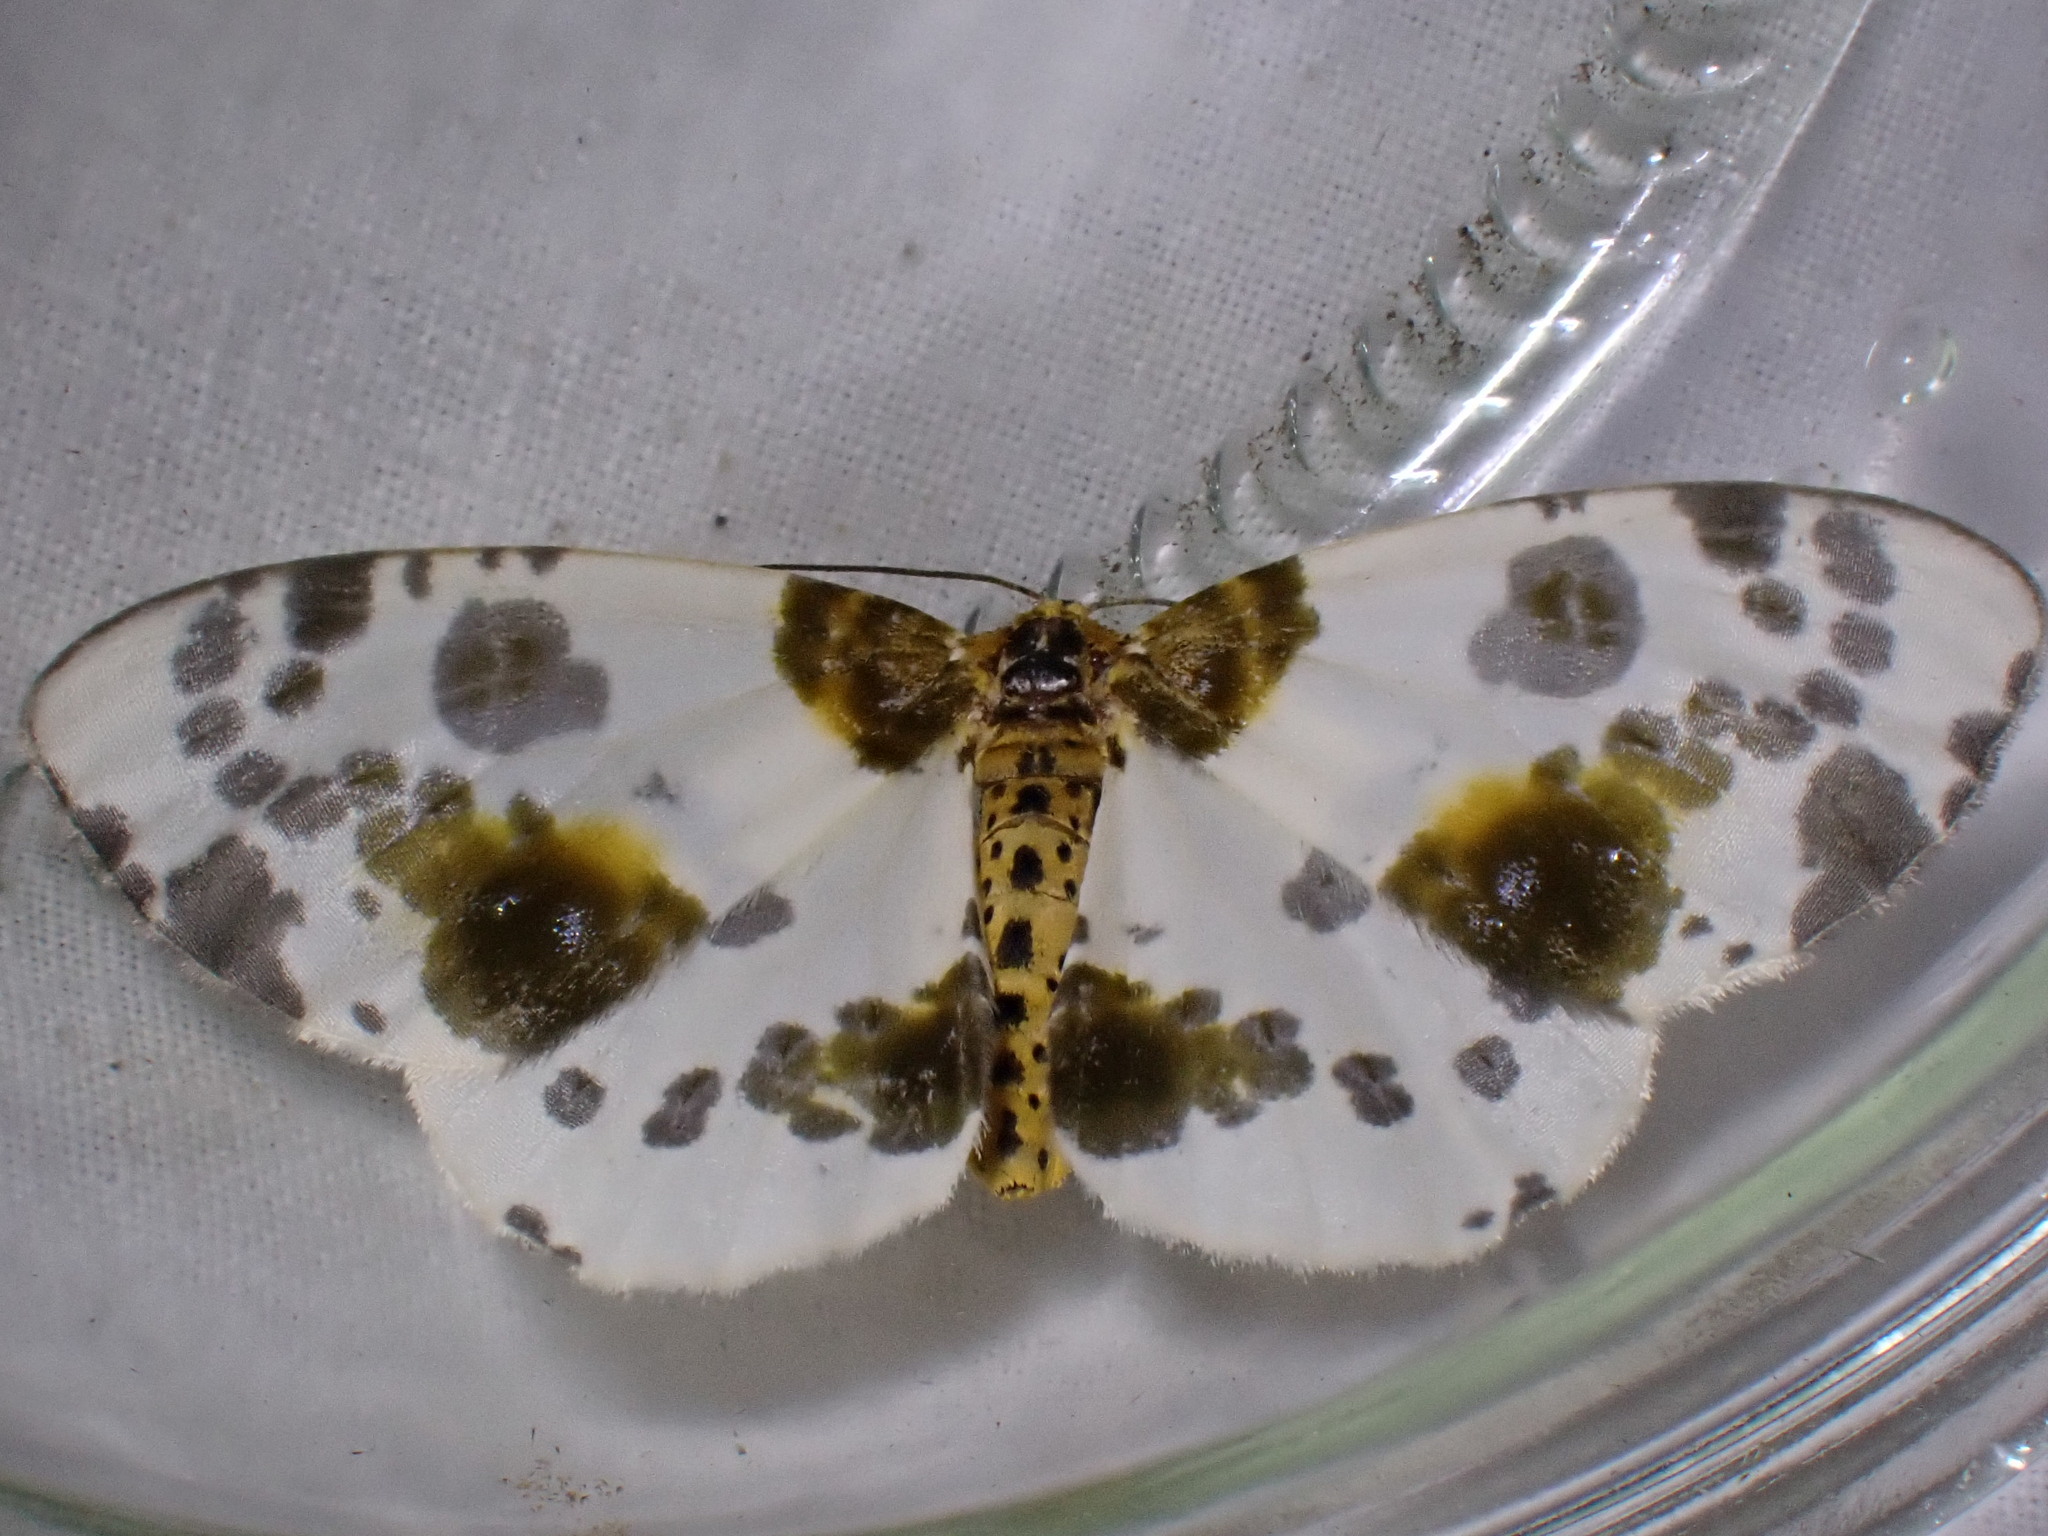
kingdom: Animalia
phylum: Arthropoda
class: Insecta
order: Lepidoptera
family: Geometridae
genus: Abraxas
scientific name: Abraxas sylvata
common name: Clouded magpie
